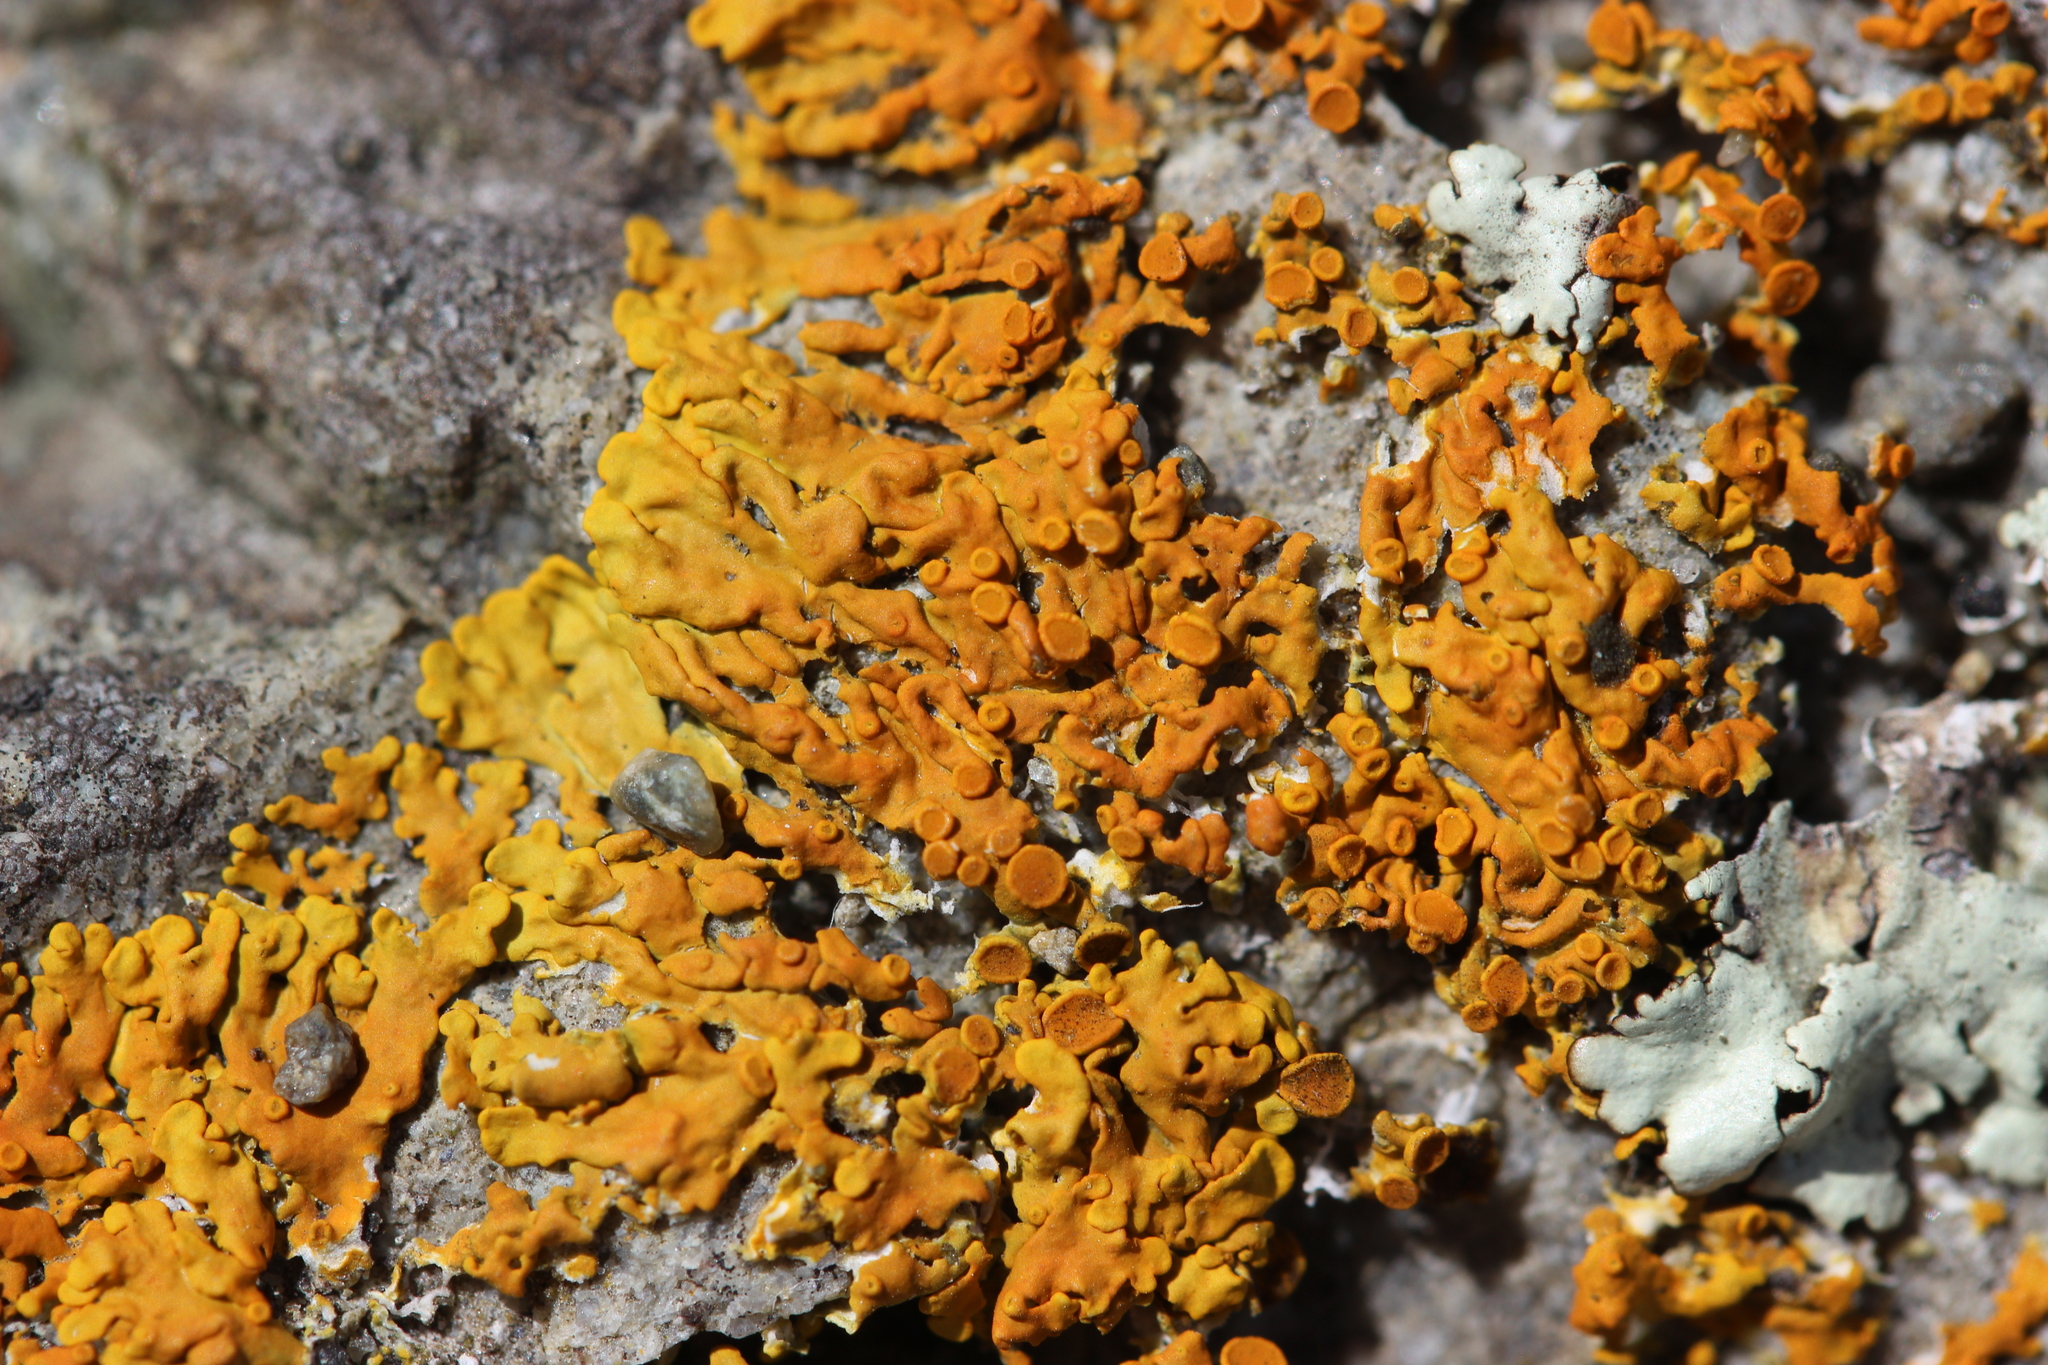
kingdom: Fungi
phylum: Ascomycota
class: Lecanoromycetes
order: Teloschistales
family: Teloschistaceae
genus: Dufourea
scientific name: Dufourea ligulata
